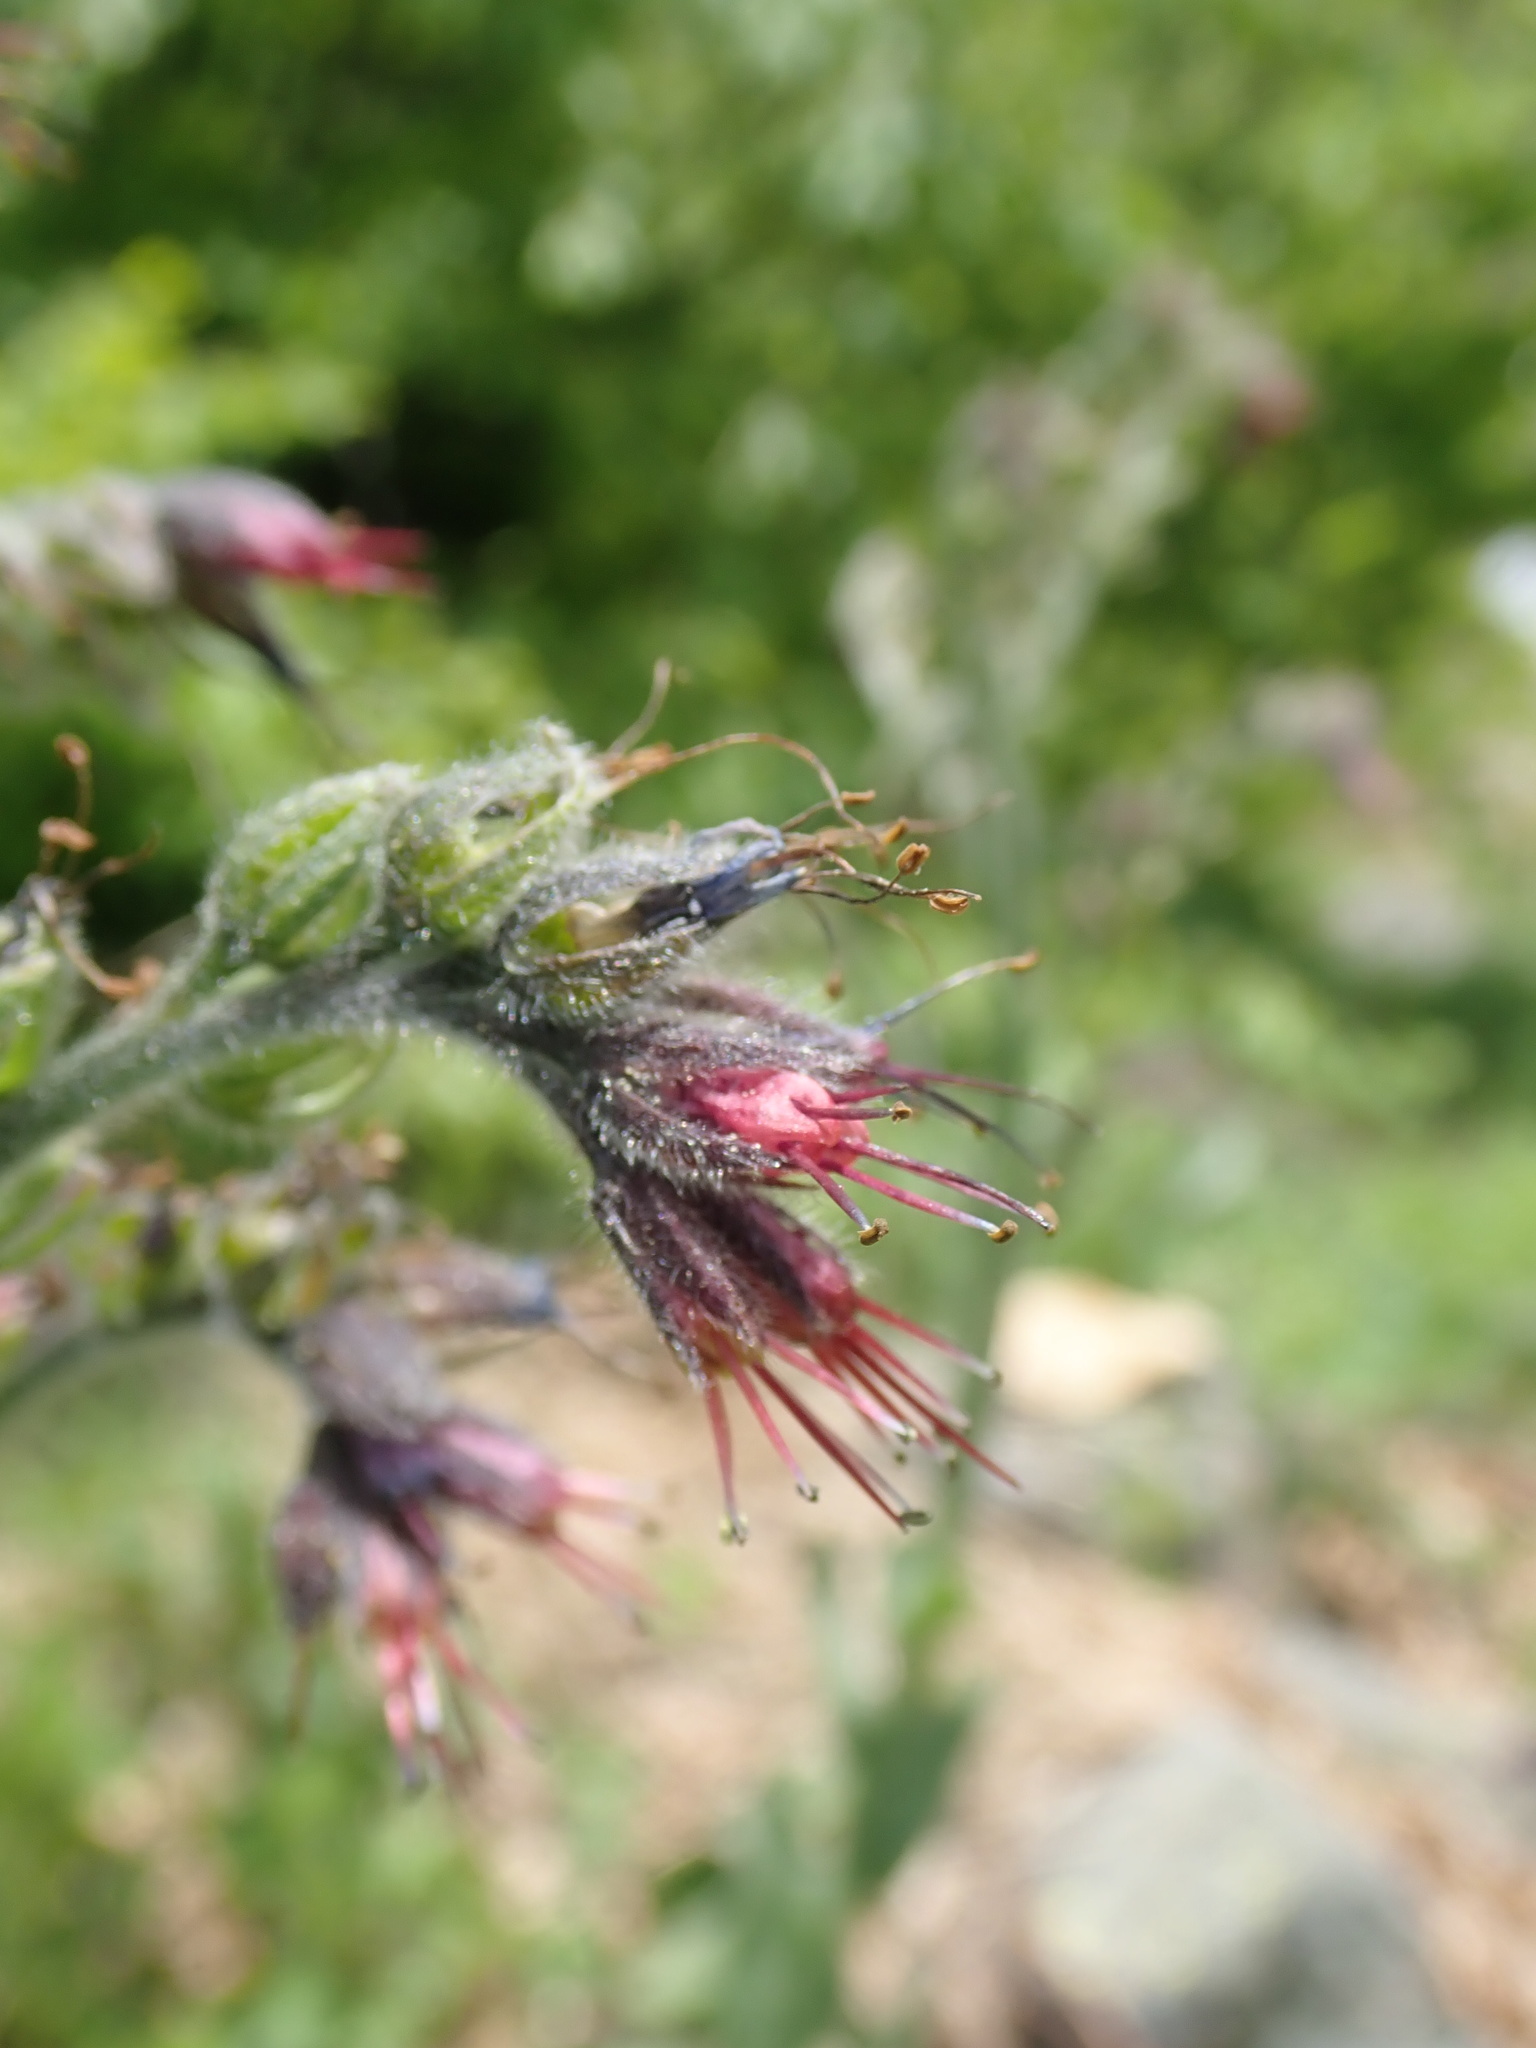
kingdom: Plantae
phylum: Tracheophyta
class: Magnoliopsida
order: Boraginales
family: Boraginaceae
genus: Solenanthus
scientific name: Solenanthus stamineus
